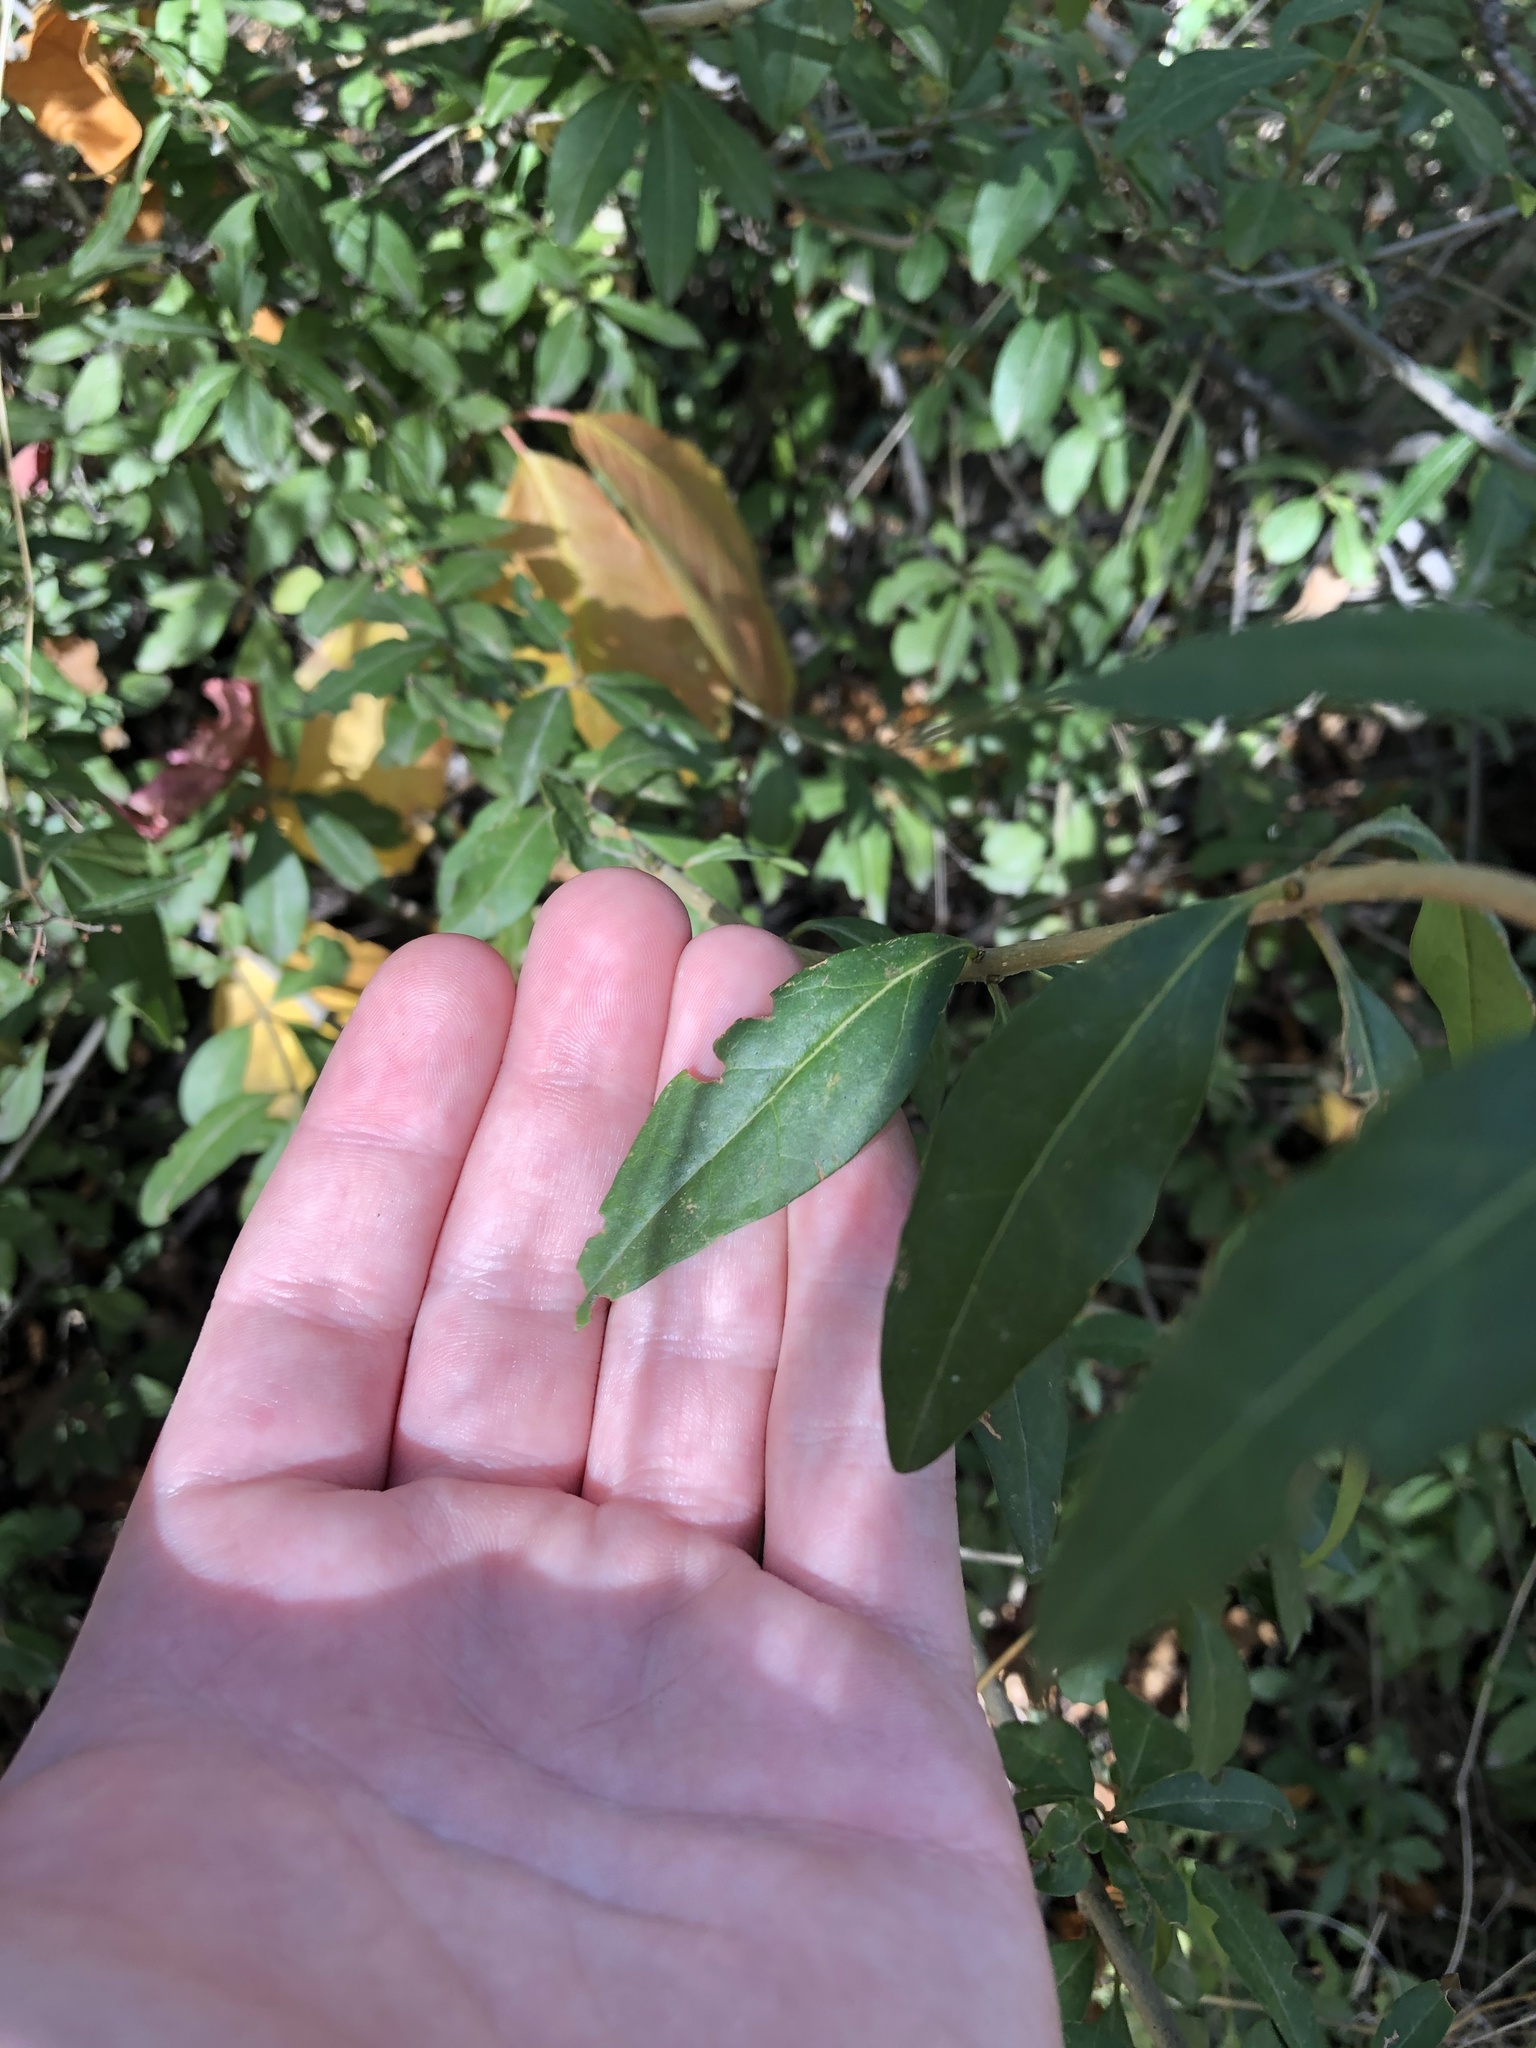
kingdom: Plantae
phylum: Tracheophyta
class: Magnoliopsida
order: Lamiales
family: Oleaceae
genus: Ligustrum
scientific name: Ligustrum vulgare
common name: Wild privet
